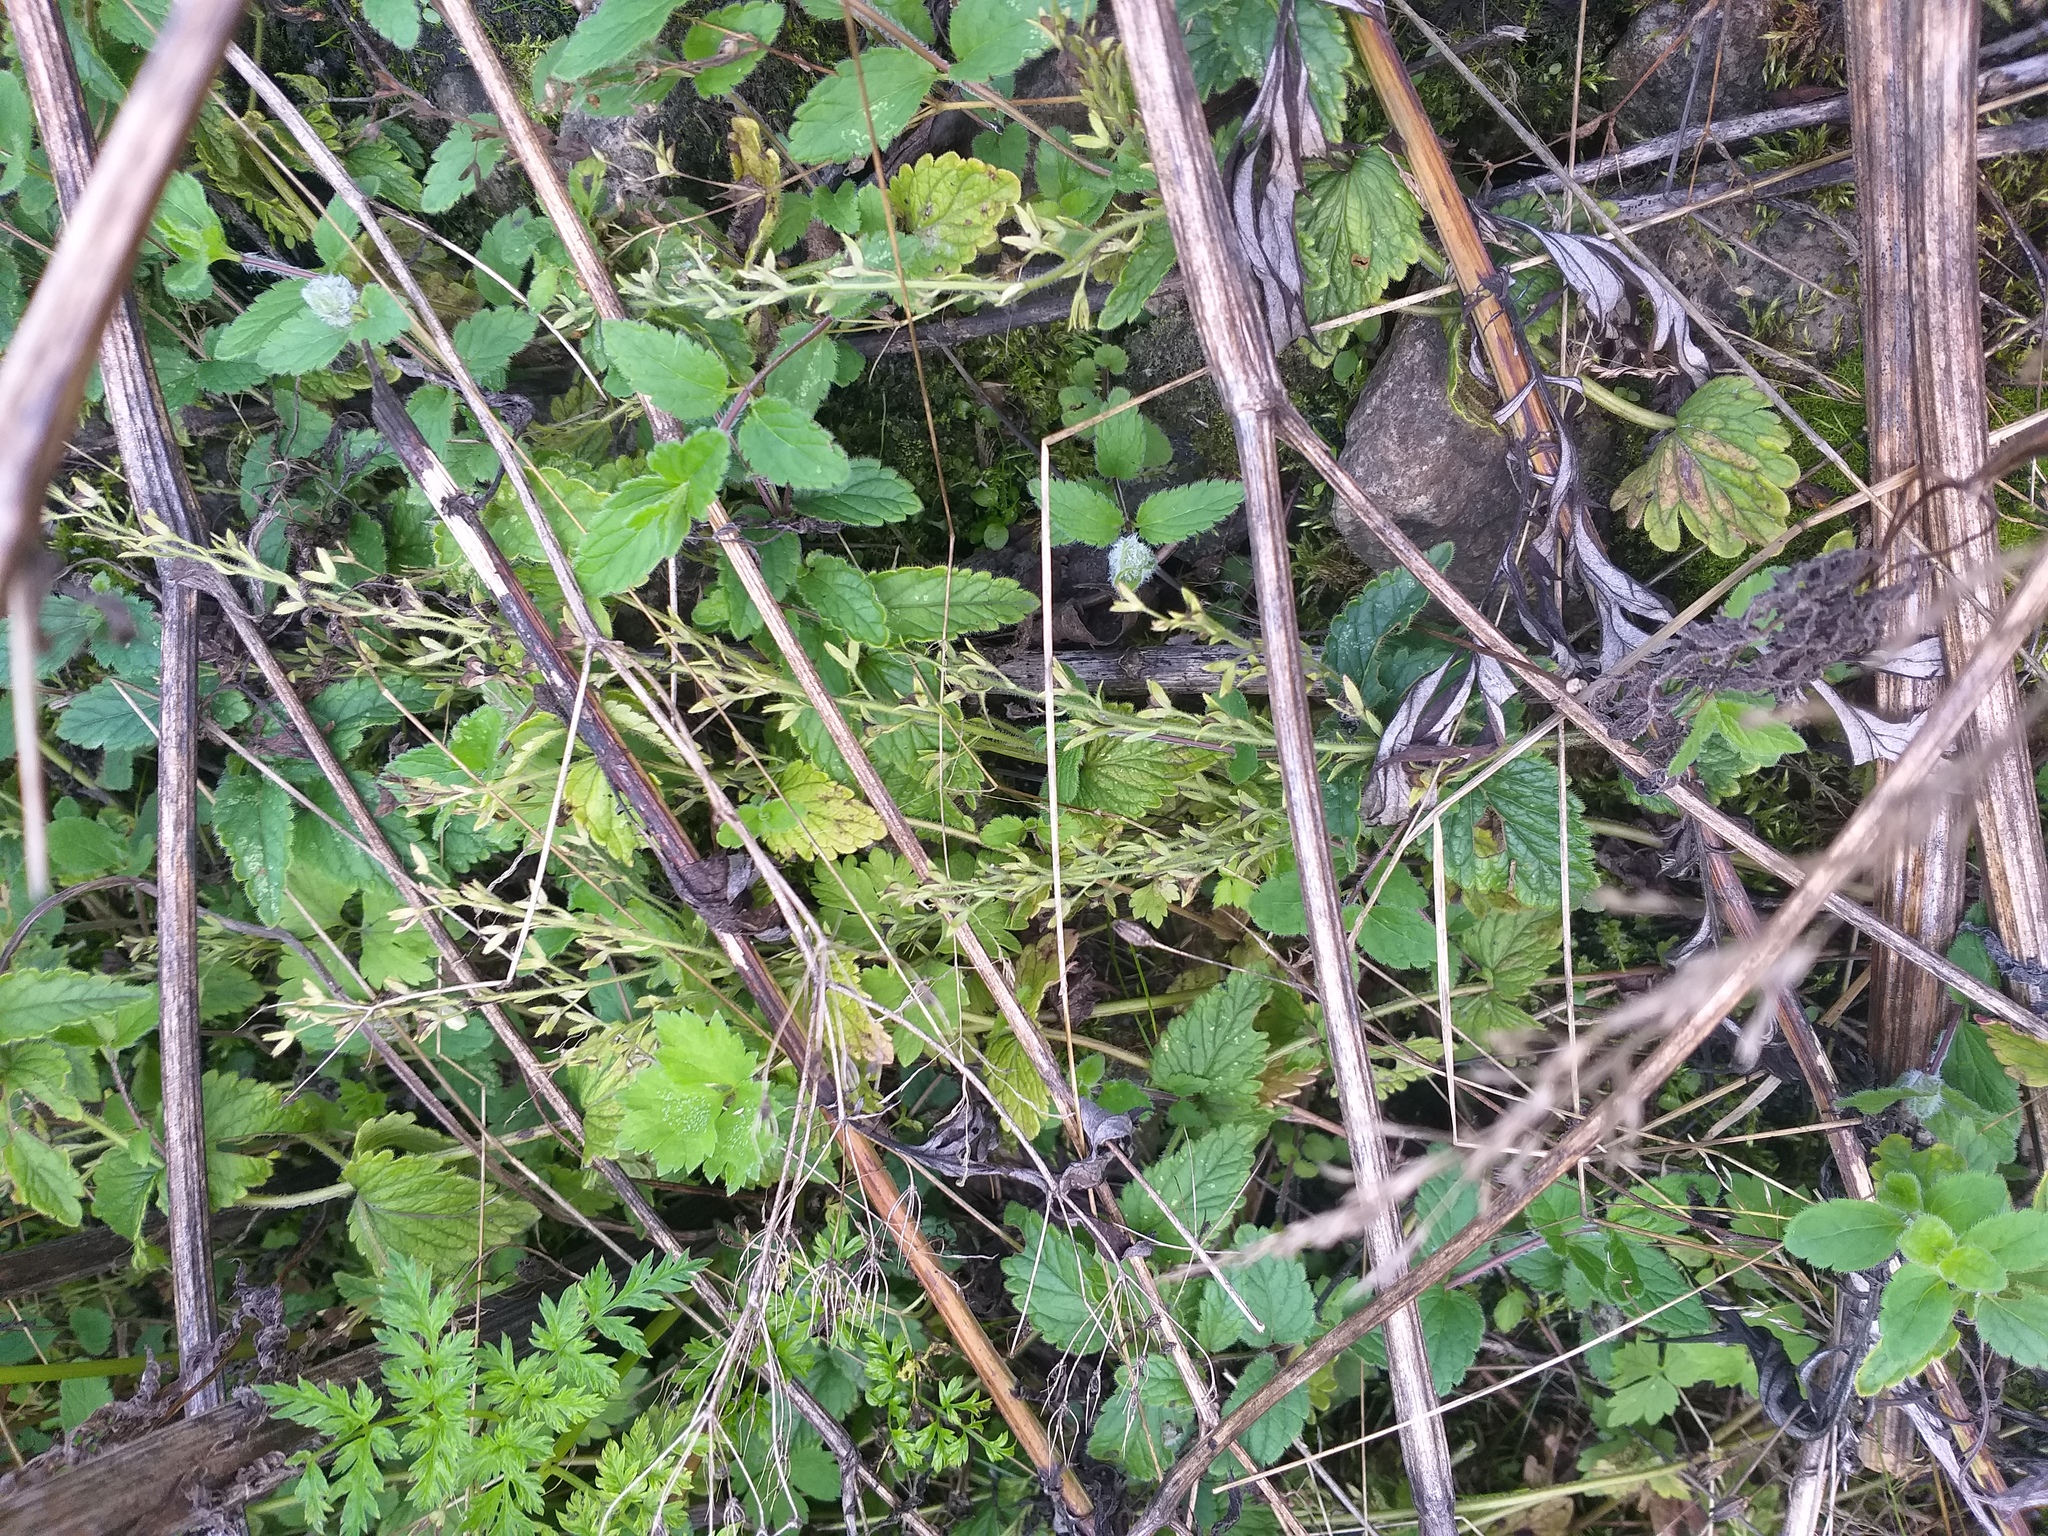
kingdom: Plantae
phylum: Tracheophyta
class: Magnoliopsida
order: Lamiales
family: Plantaginaceae
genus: Veronica
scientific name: Veronica chamaedrys
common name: Germander speedwell
